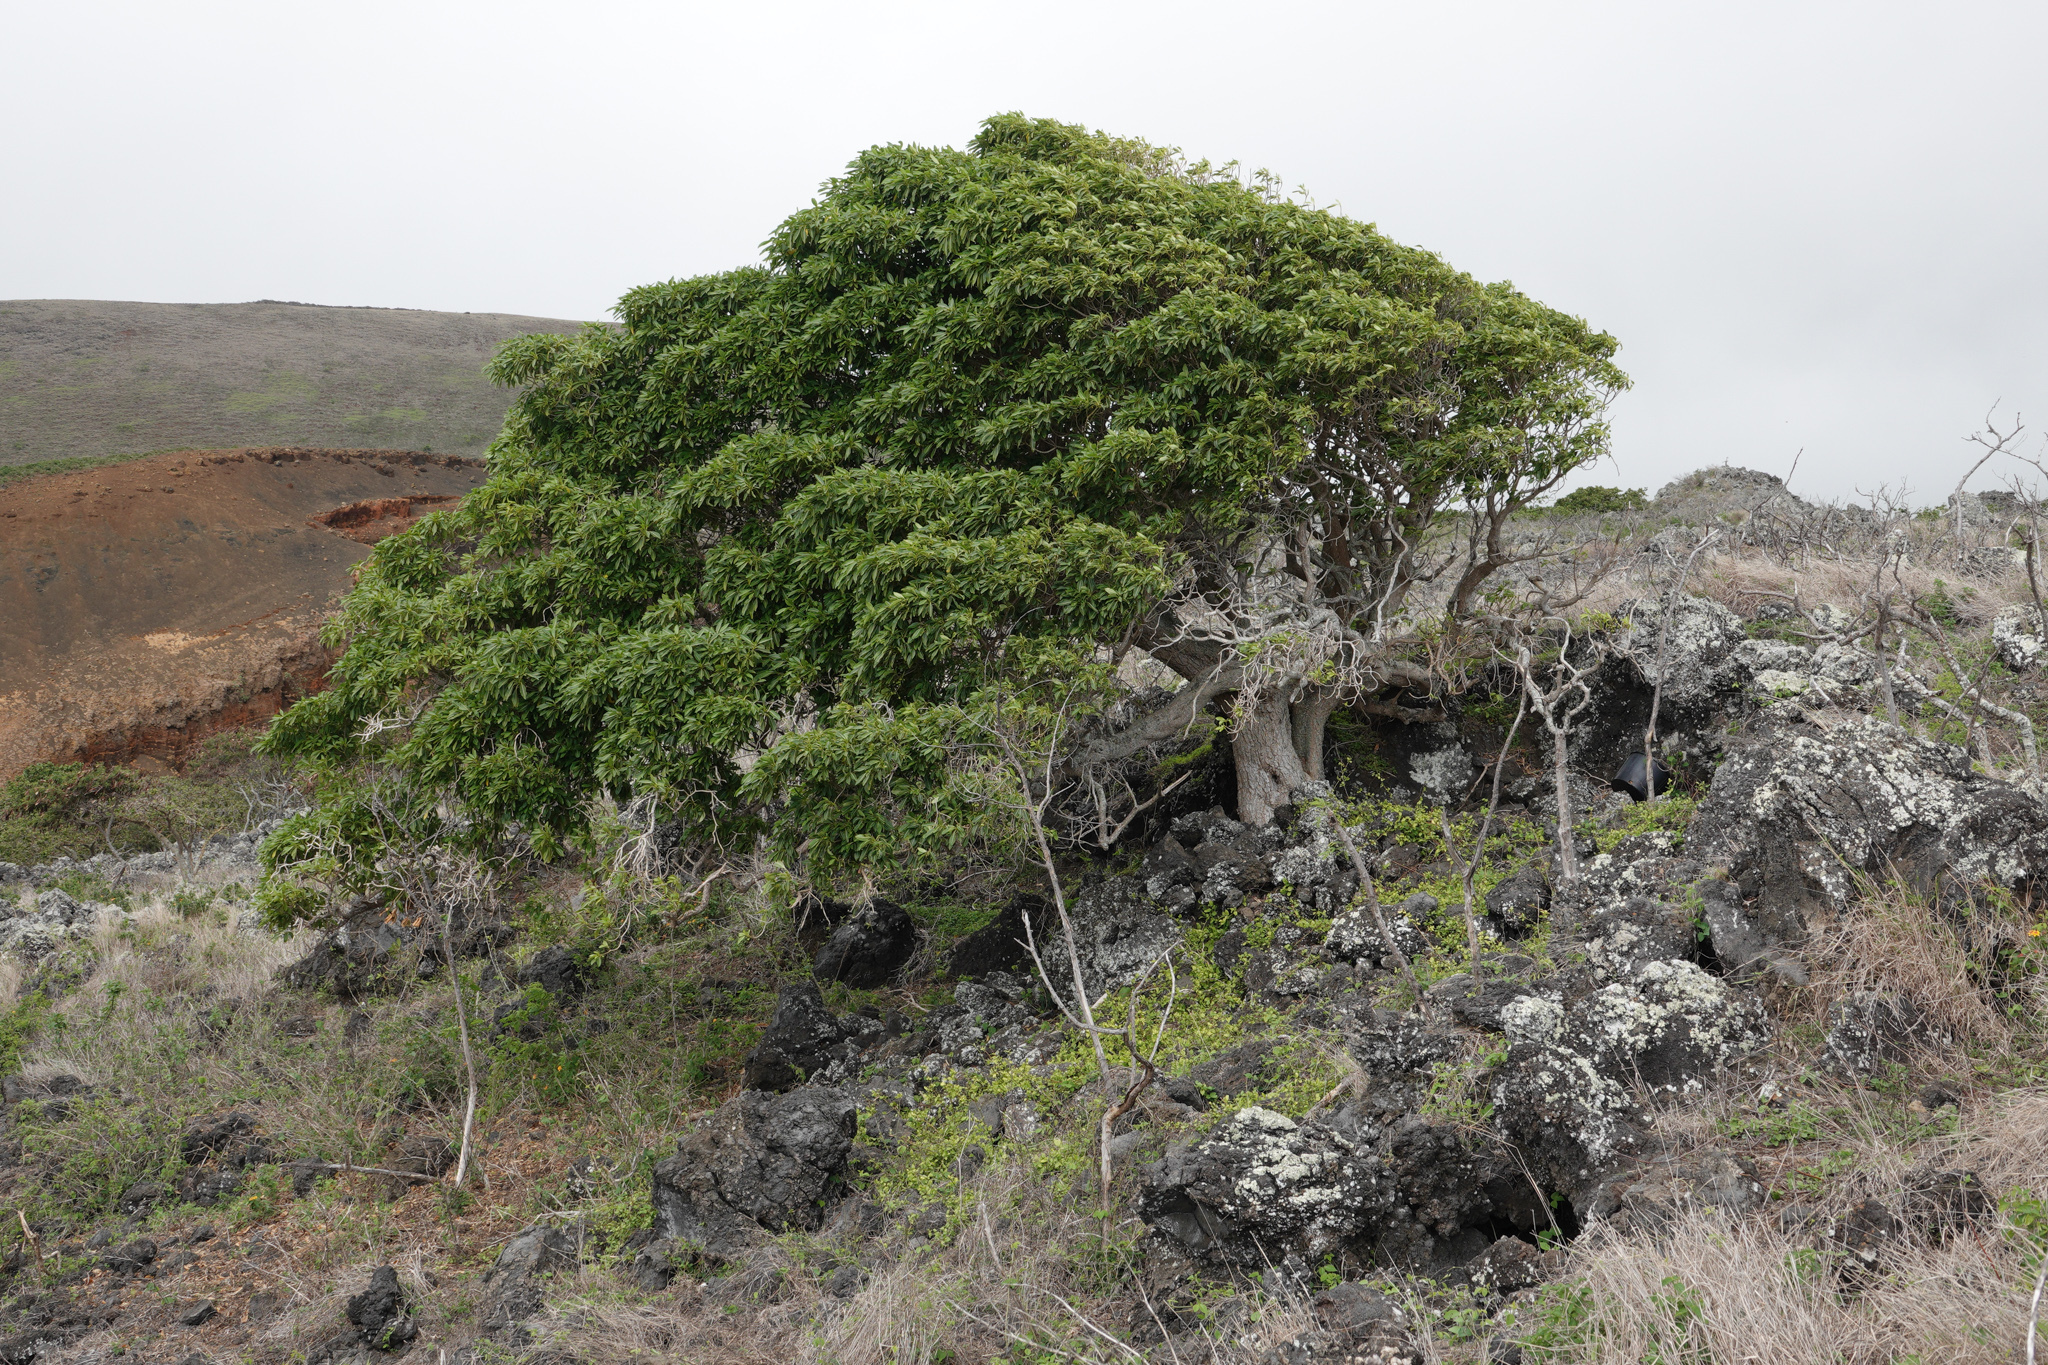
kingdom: Plantae
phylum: Tracheophyta
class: Magnoliopsida
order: Gentianales
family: Apocynaceae
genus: Rauvolfia
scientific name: Rauvolfia sandwicensis
